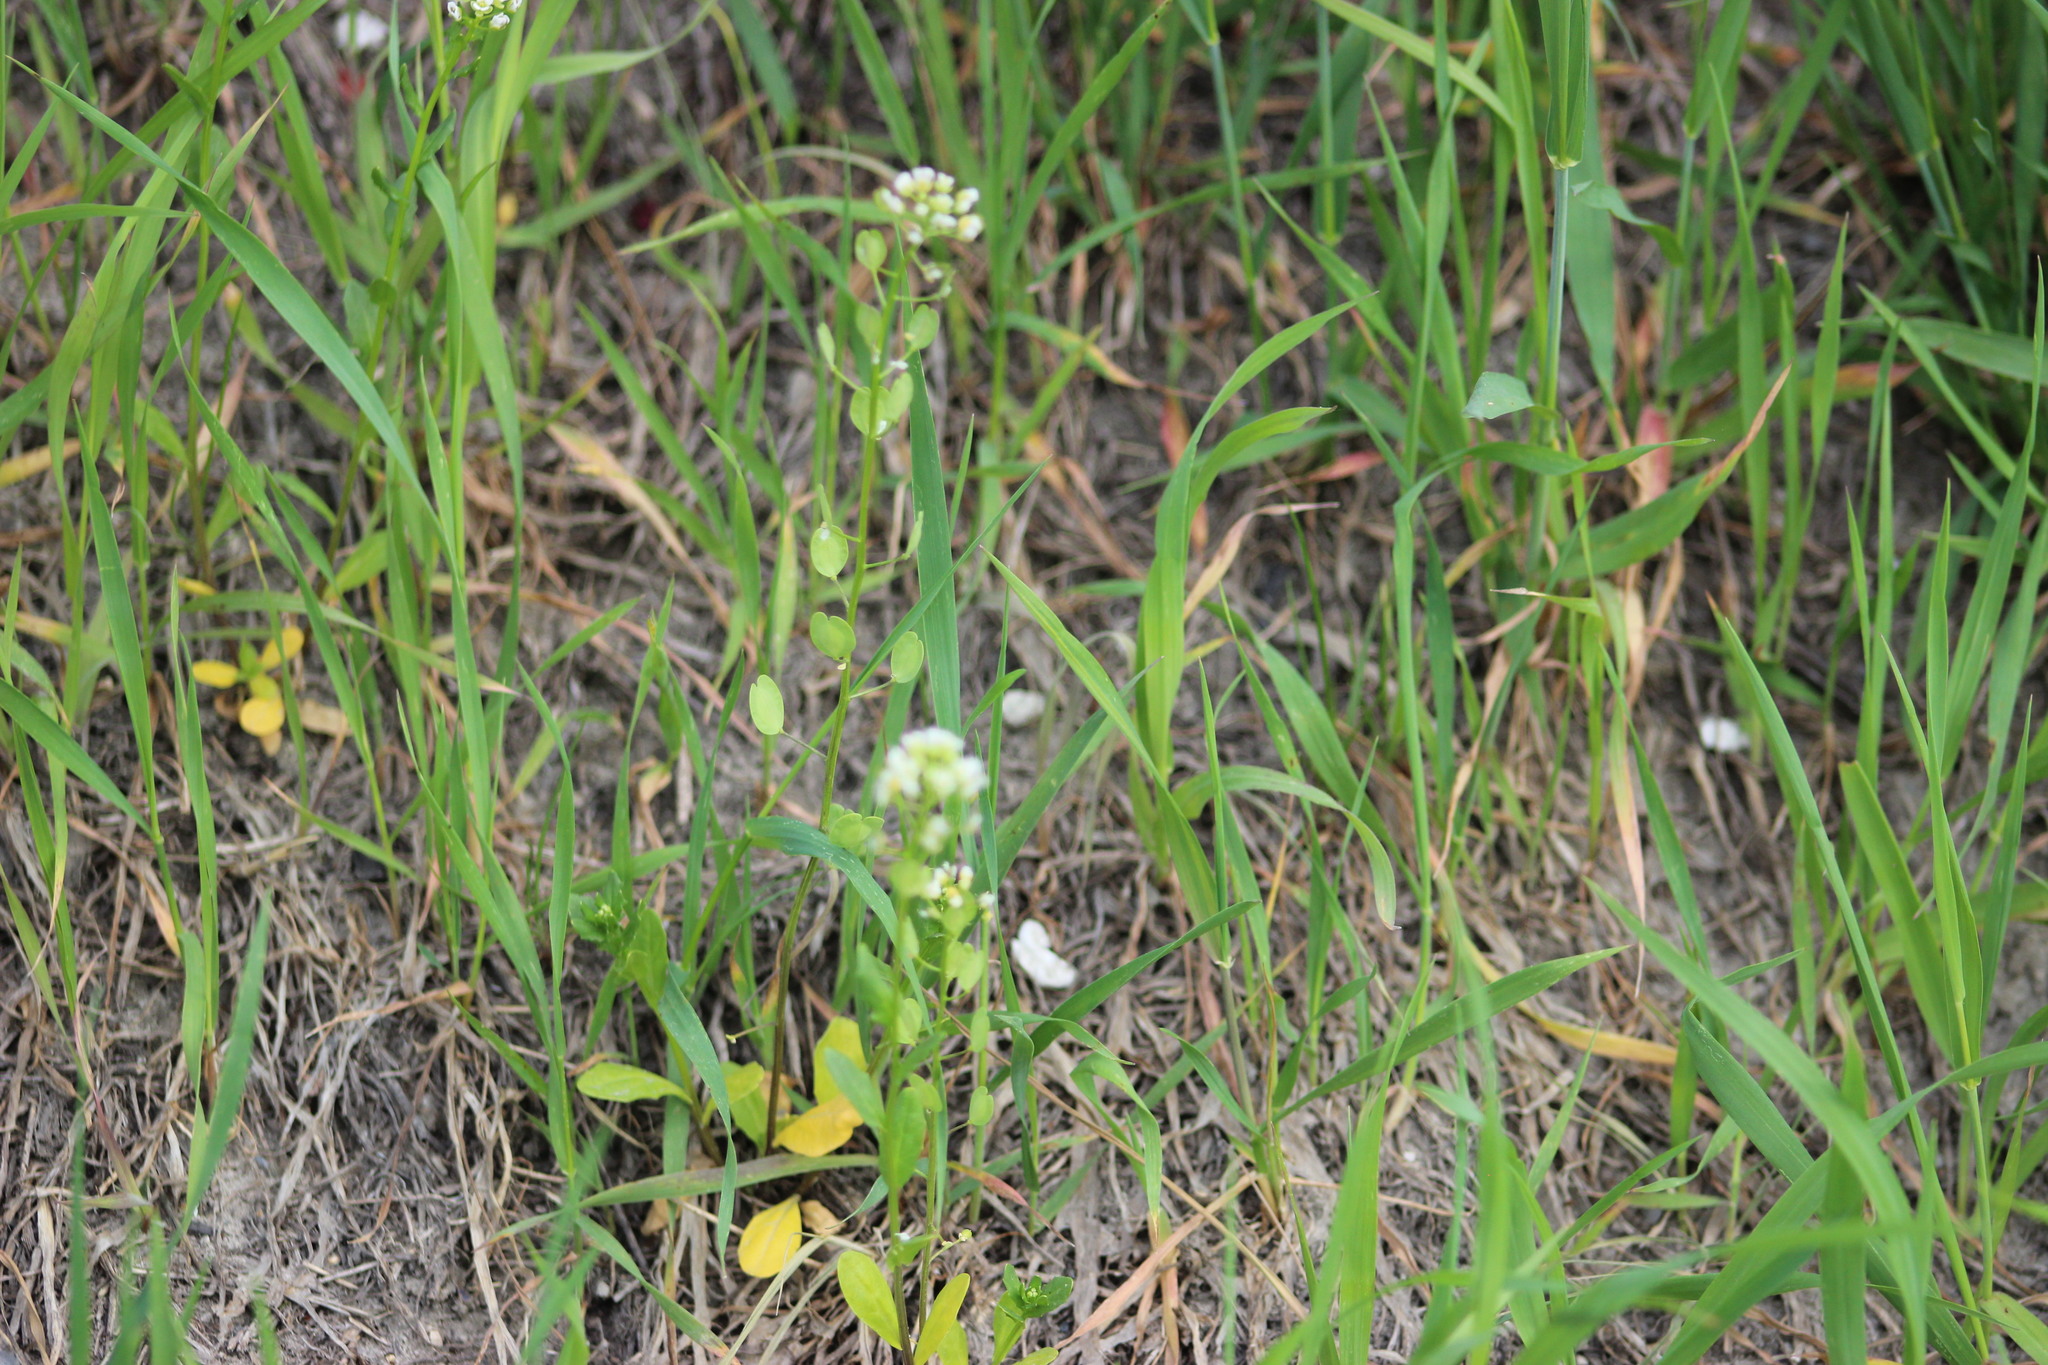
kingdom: Plantae
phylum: Tracheophyta
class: Magnoliopsida
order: Brassicales
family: Brassicaceae
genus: Thlaspi
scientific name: Thlaspi arvense
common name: Field pennycress
